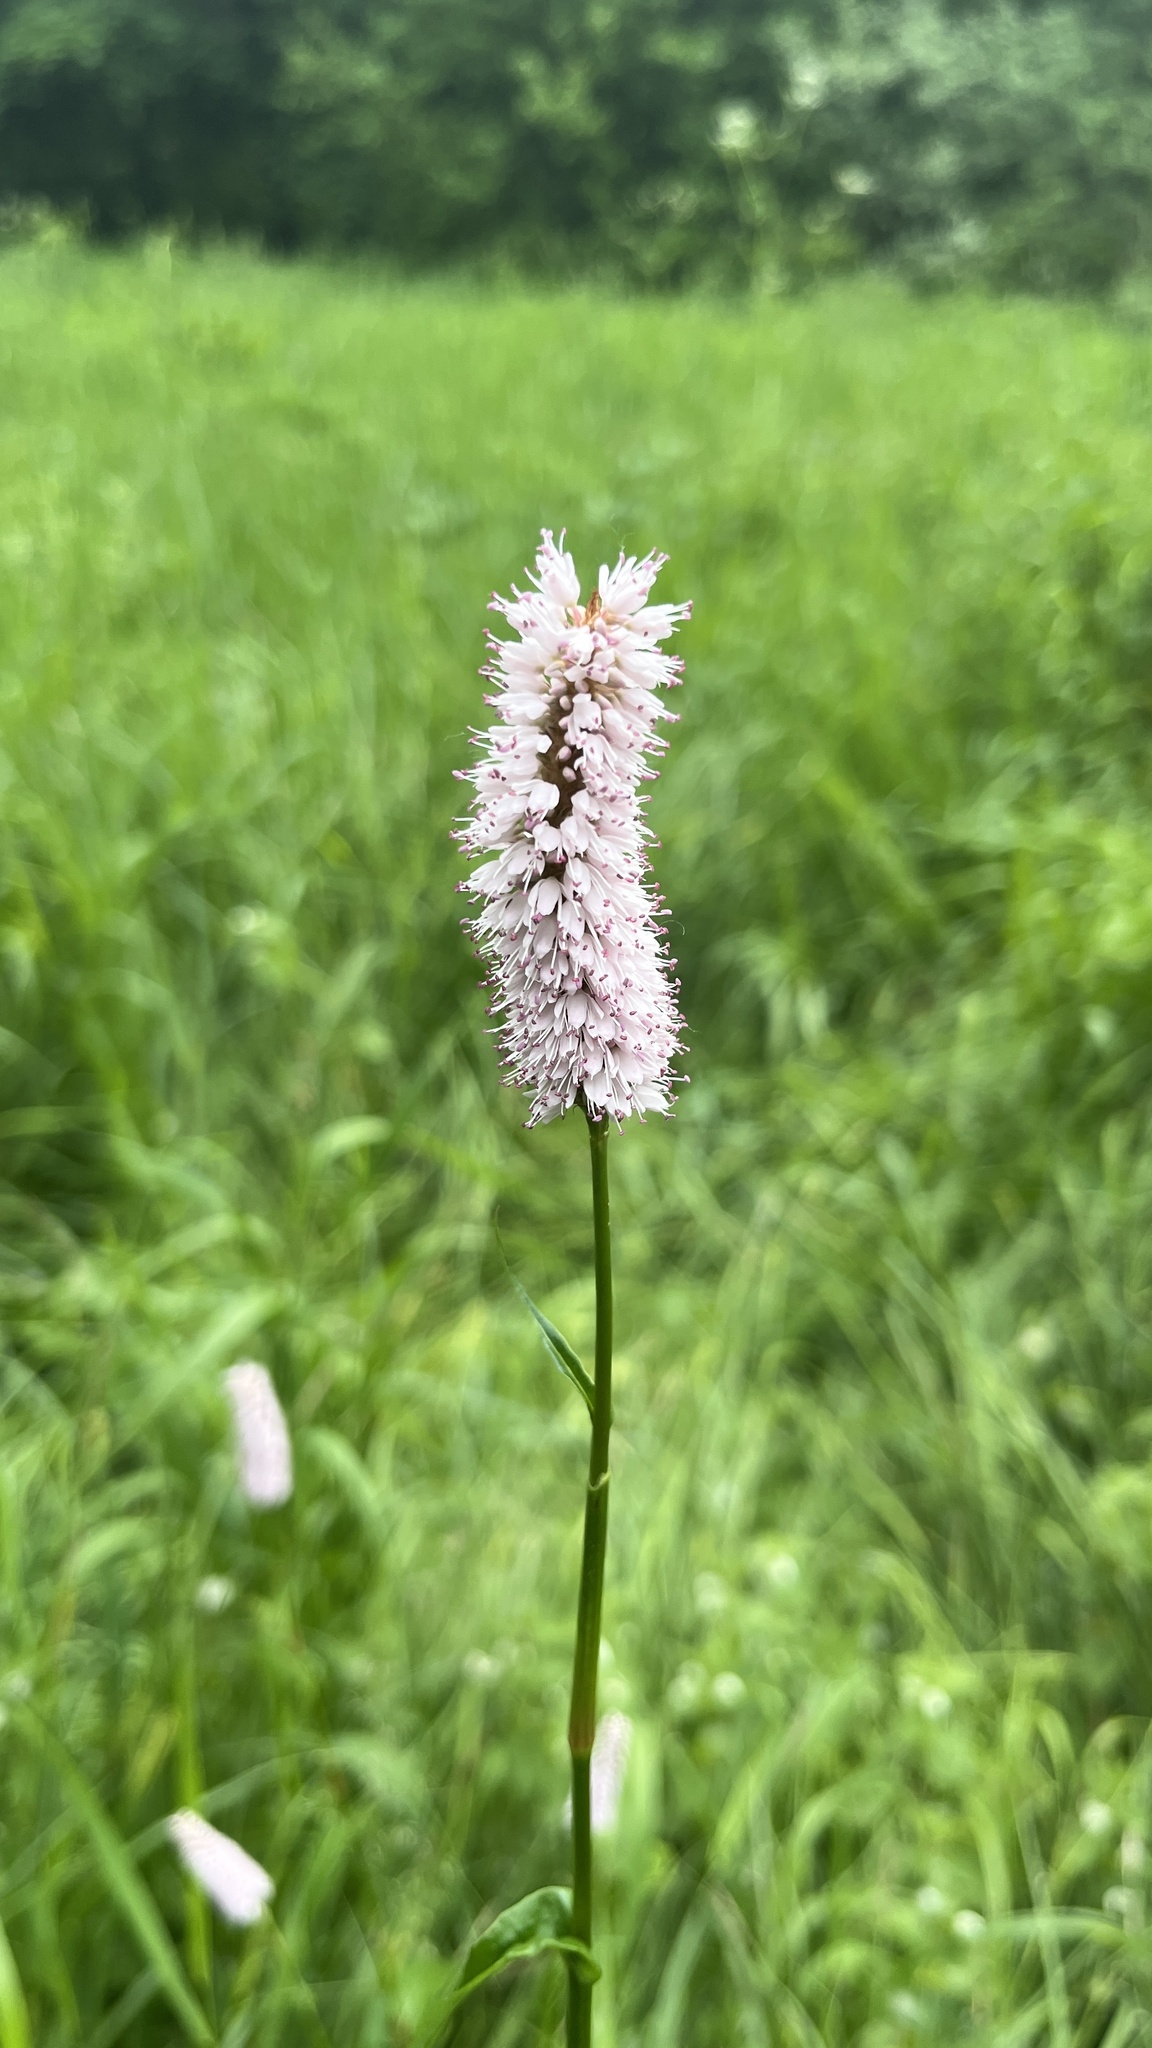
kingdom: Plantae
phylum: Tracheophyta
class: Magnoliopsida
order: Caryophyllales
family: Polygonaceae
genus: Bistorta
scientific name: Bistorta officinalis
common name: Common bistort
